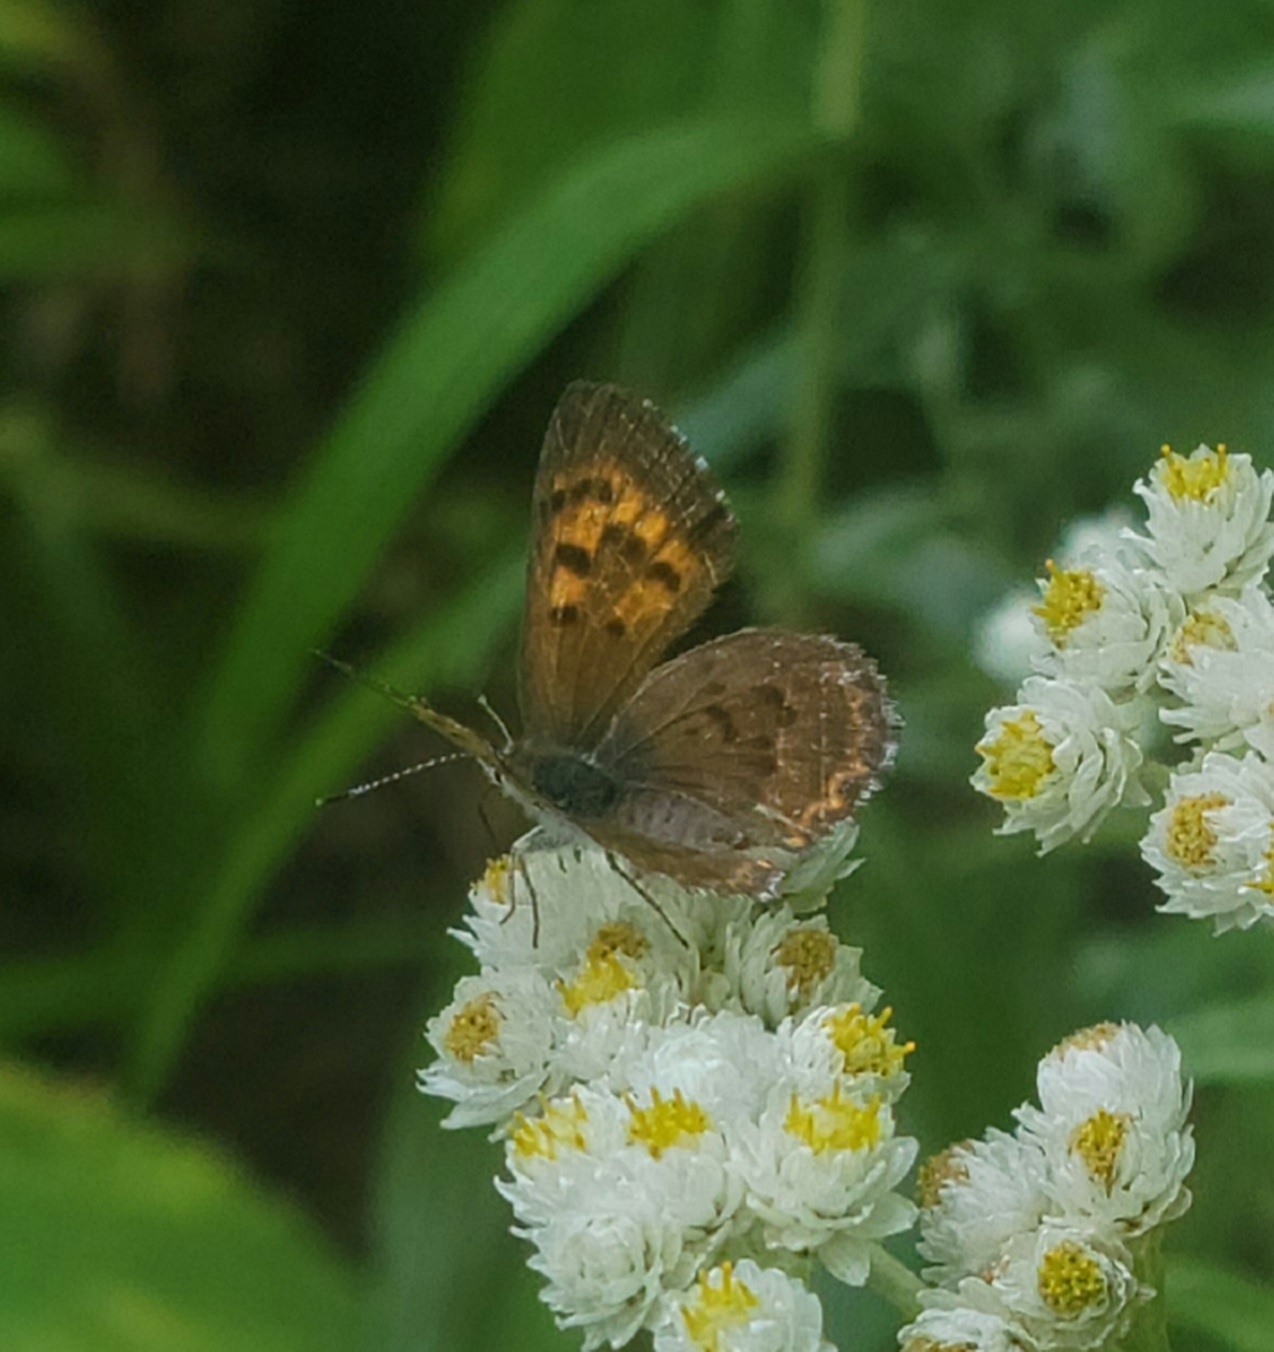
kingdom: Animalia
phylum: Arthropoda
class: Insecta
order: Lepidoptera
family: Lycaenidae
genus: Tharsalea
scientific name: Tharsalea mariposa
